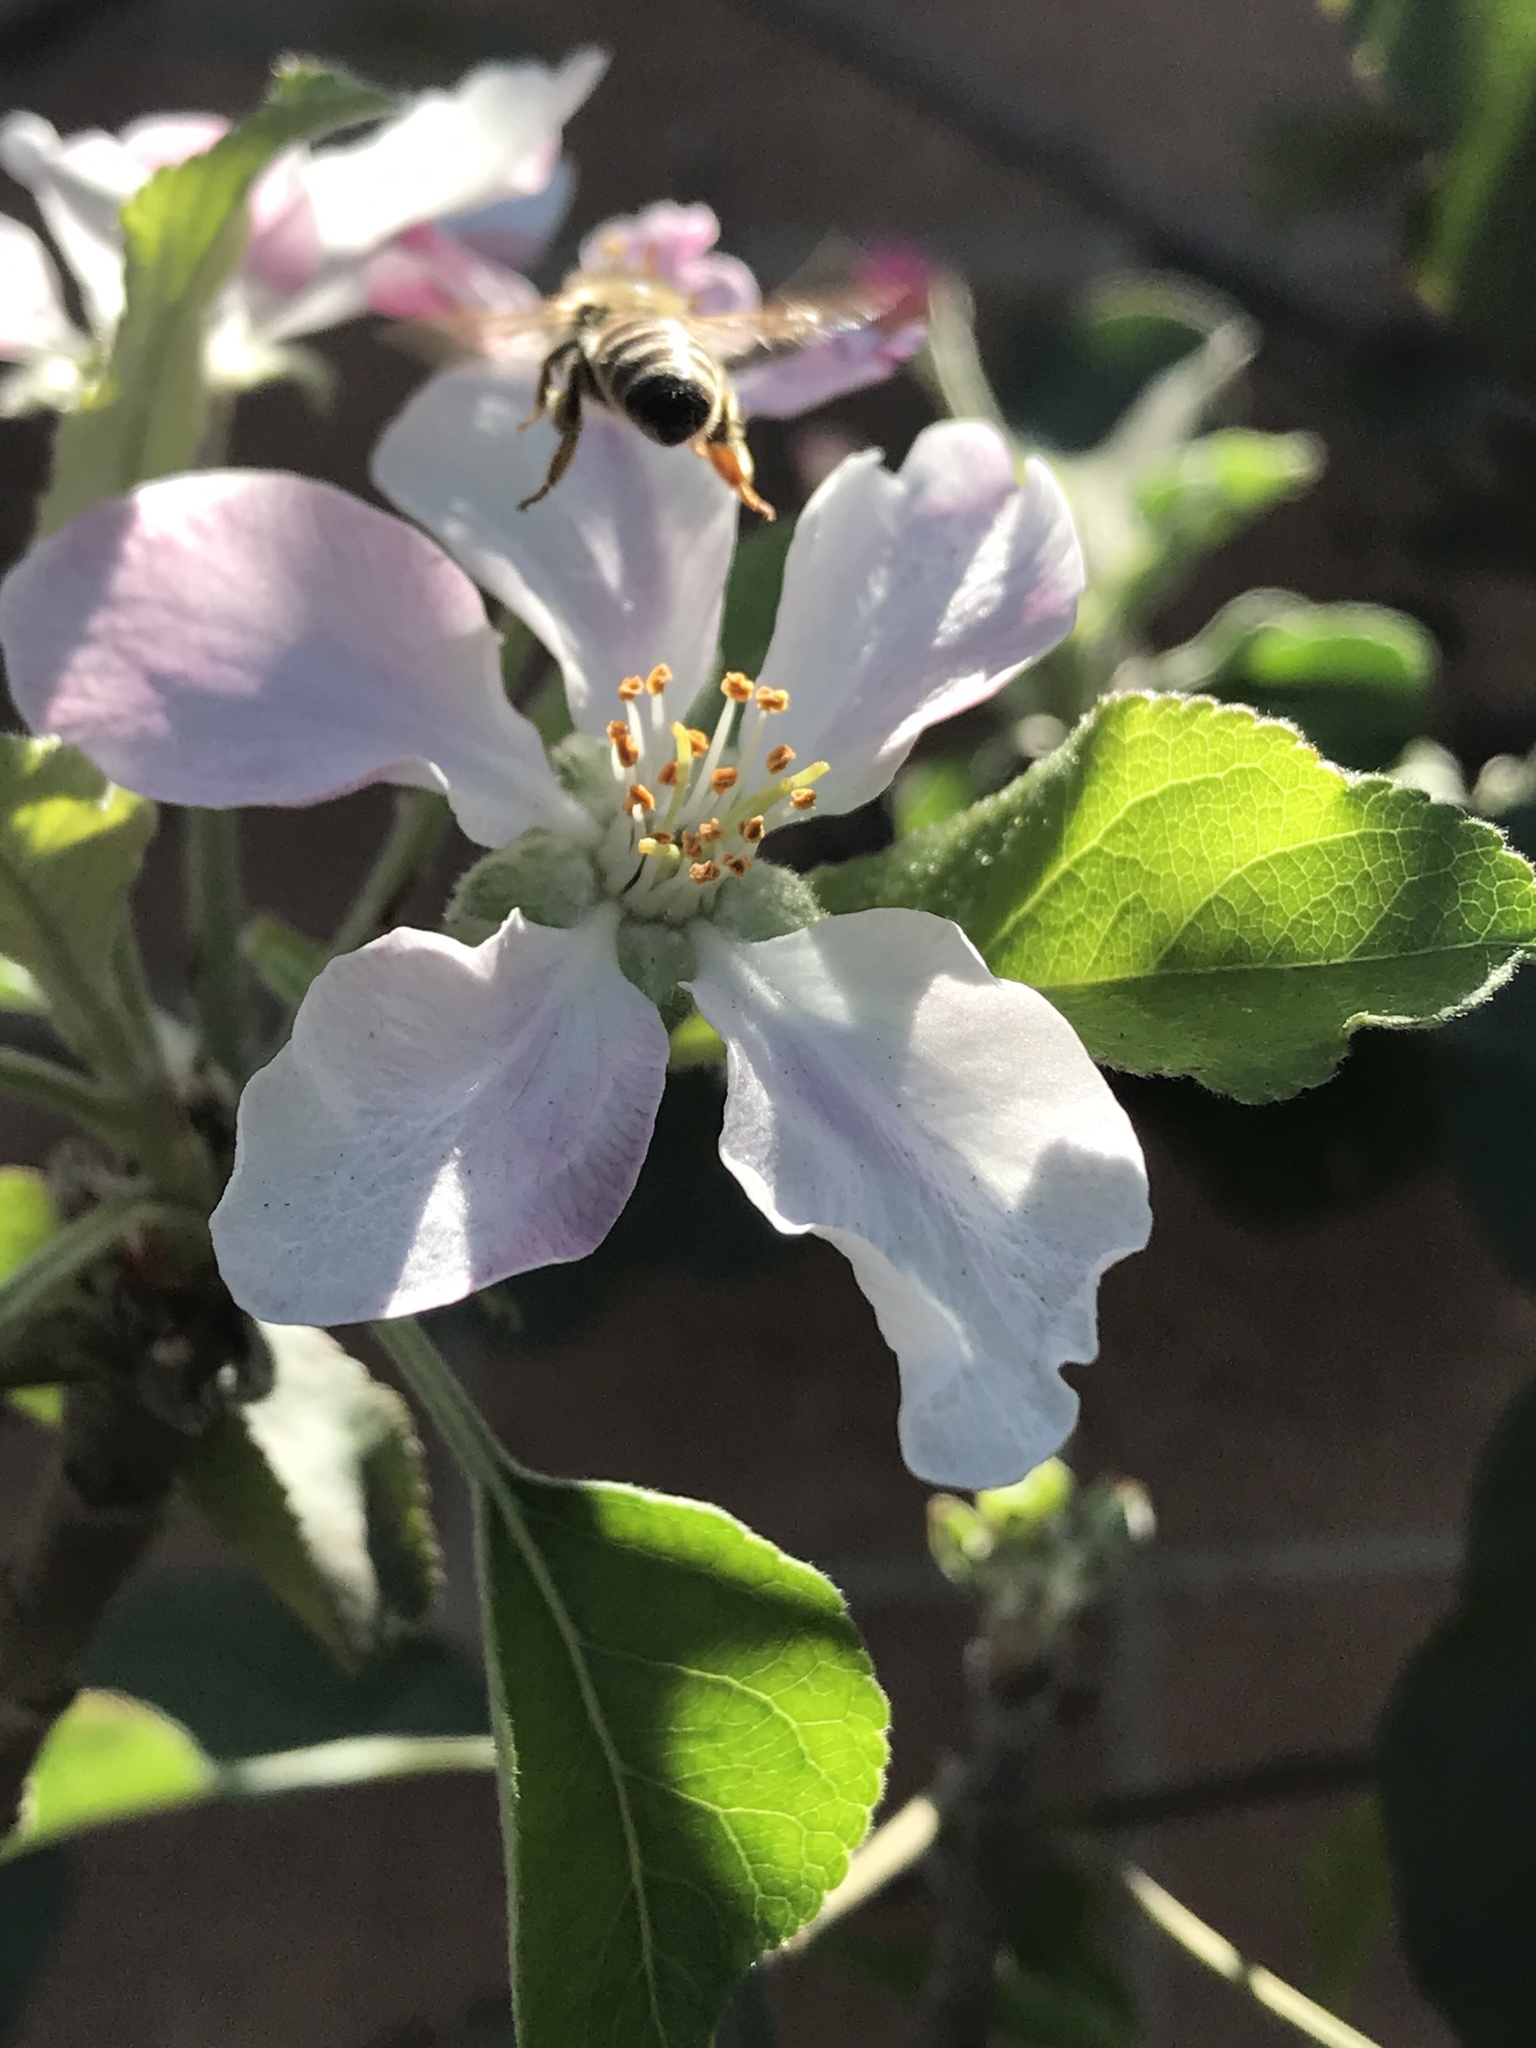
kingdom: Animalia
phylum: Arthropoda
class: Insecta
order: Hymenoptera
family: Apidae
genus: Apis
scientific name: Apis mellifera
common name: Honey bee
